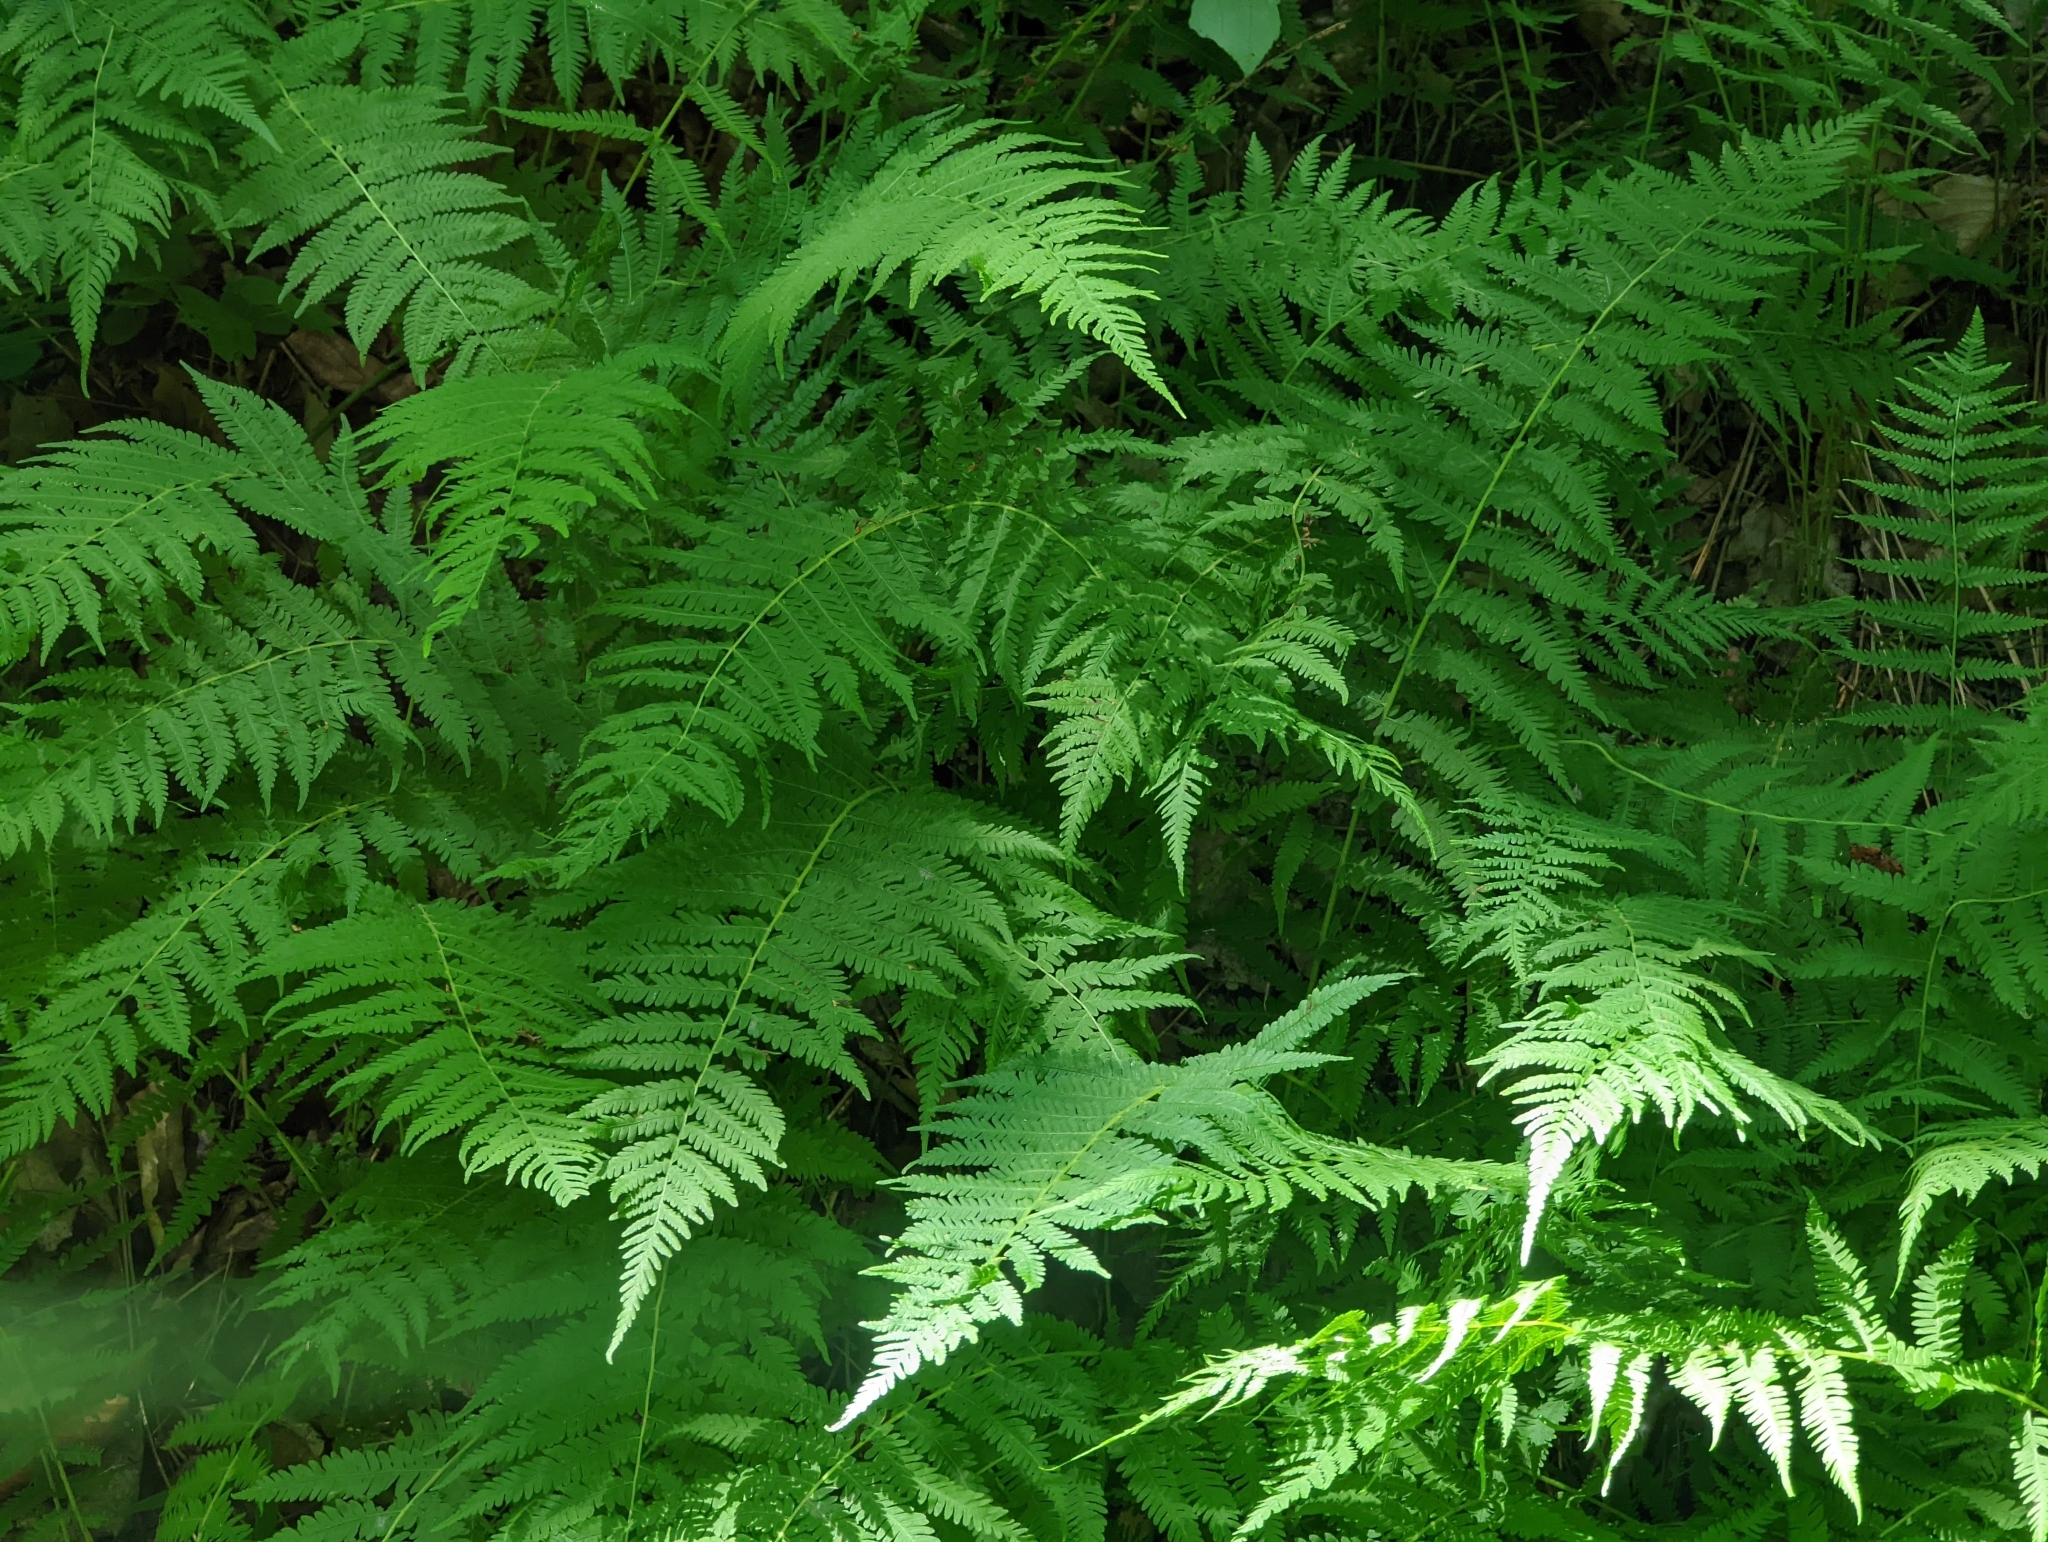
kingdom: Plantae
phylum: Tracheophyta
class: Polypodiopsida
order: Polypodiales
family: Thelypteridaceae
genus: Amauropelta
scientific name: Amauropelta noveboracensis
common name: New york fern
